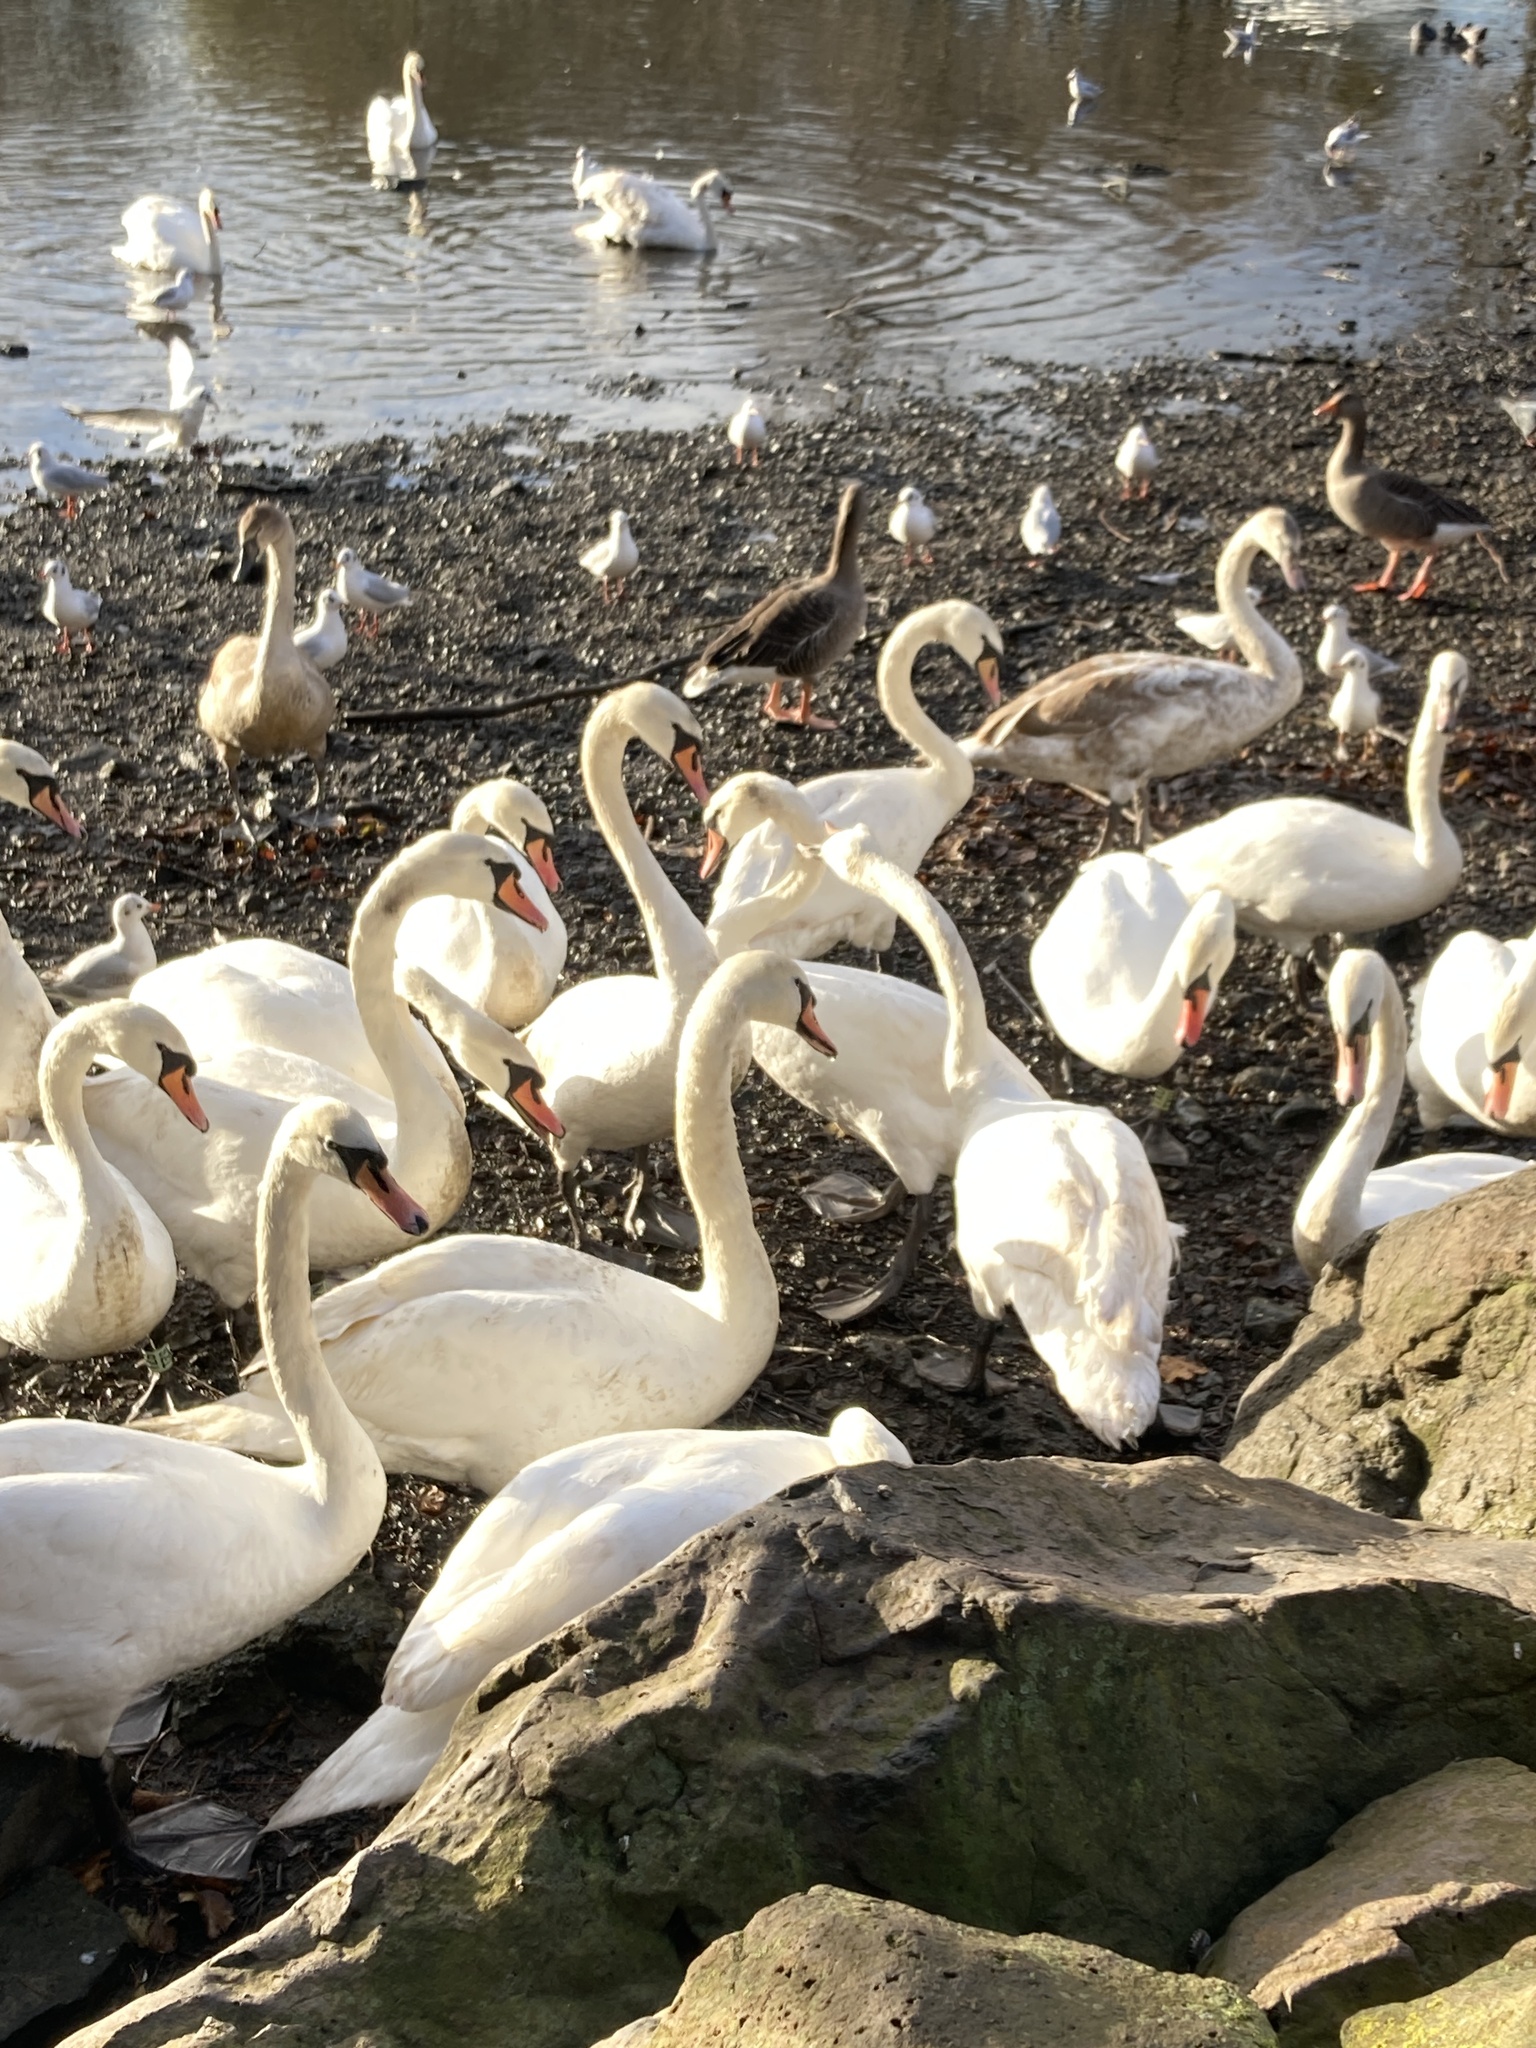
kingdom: Animalia
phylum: Chordata
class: Aves
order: Anseriformes
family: Anatidae
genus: Cygnus
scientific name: Cygnus olor
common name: Mute swan
